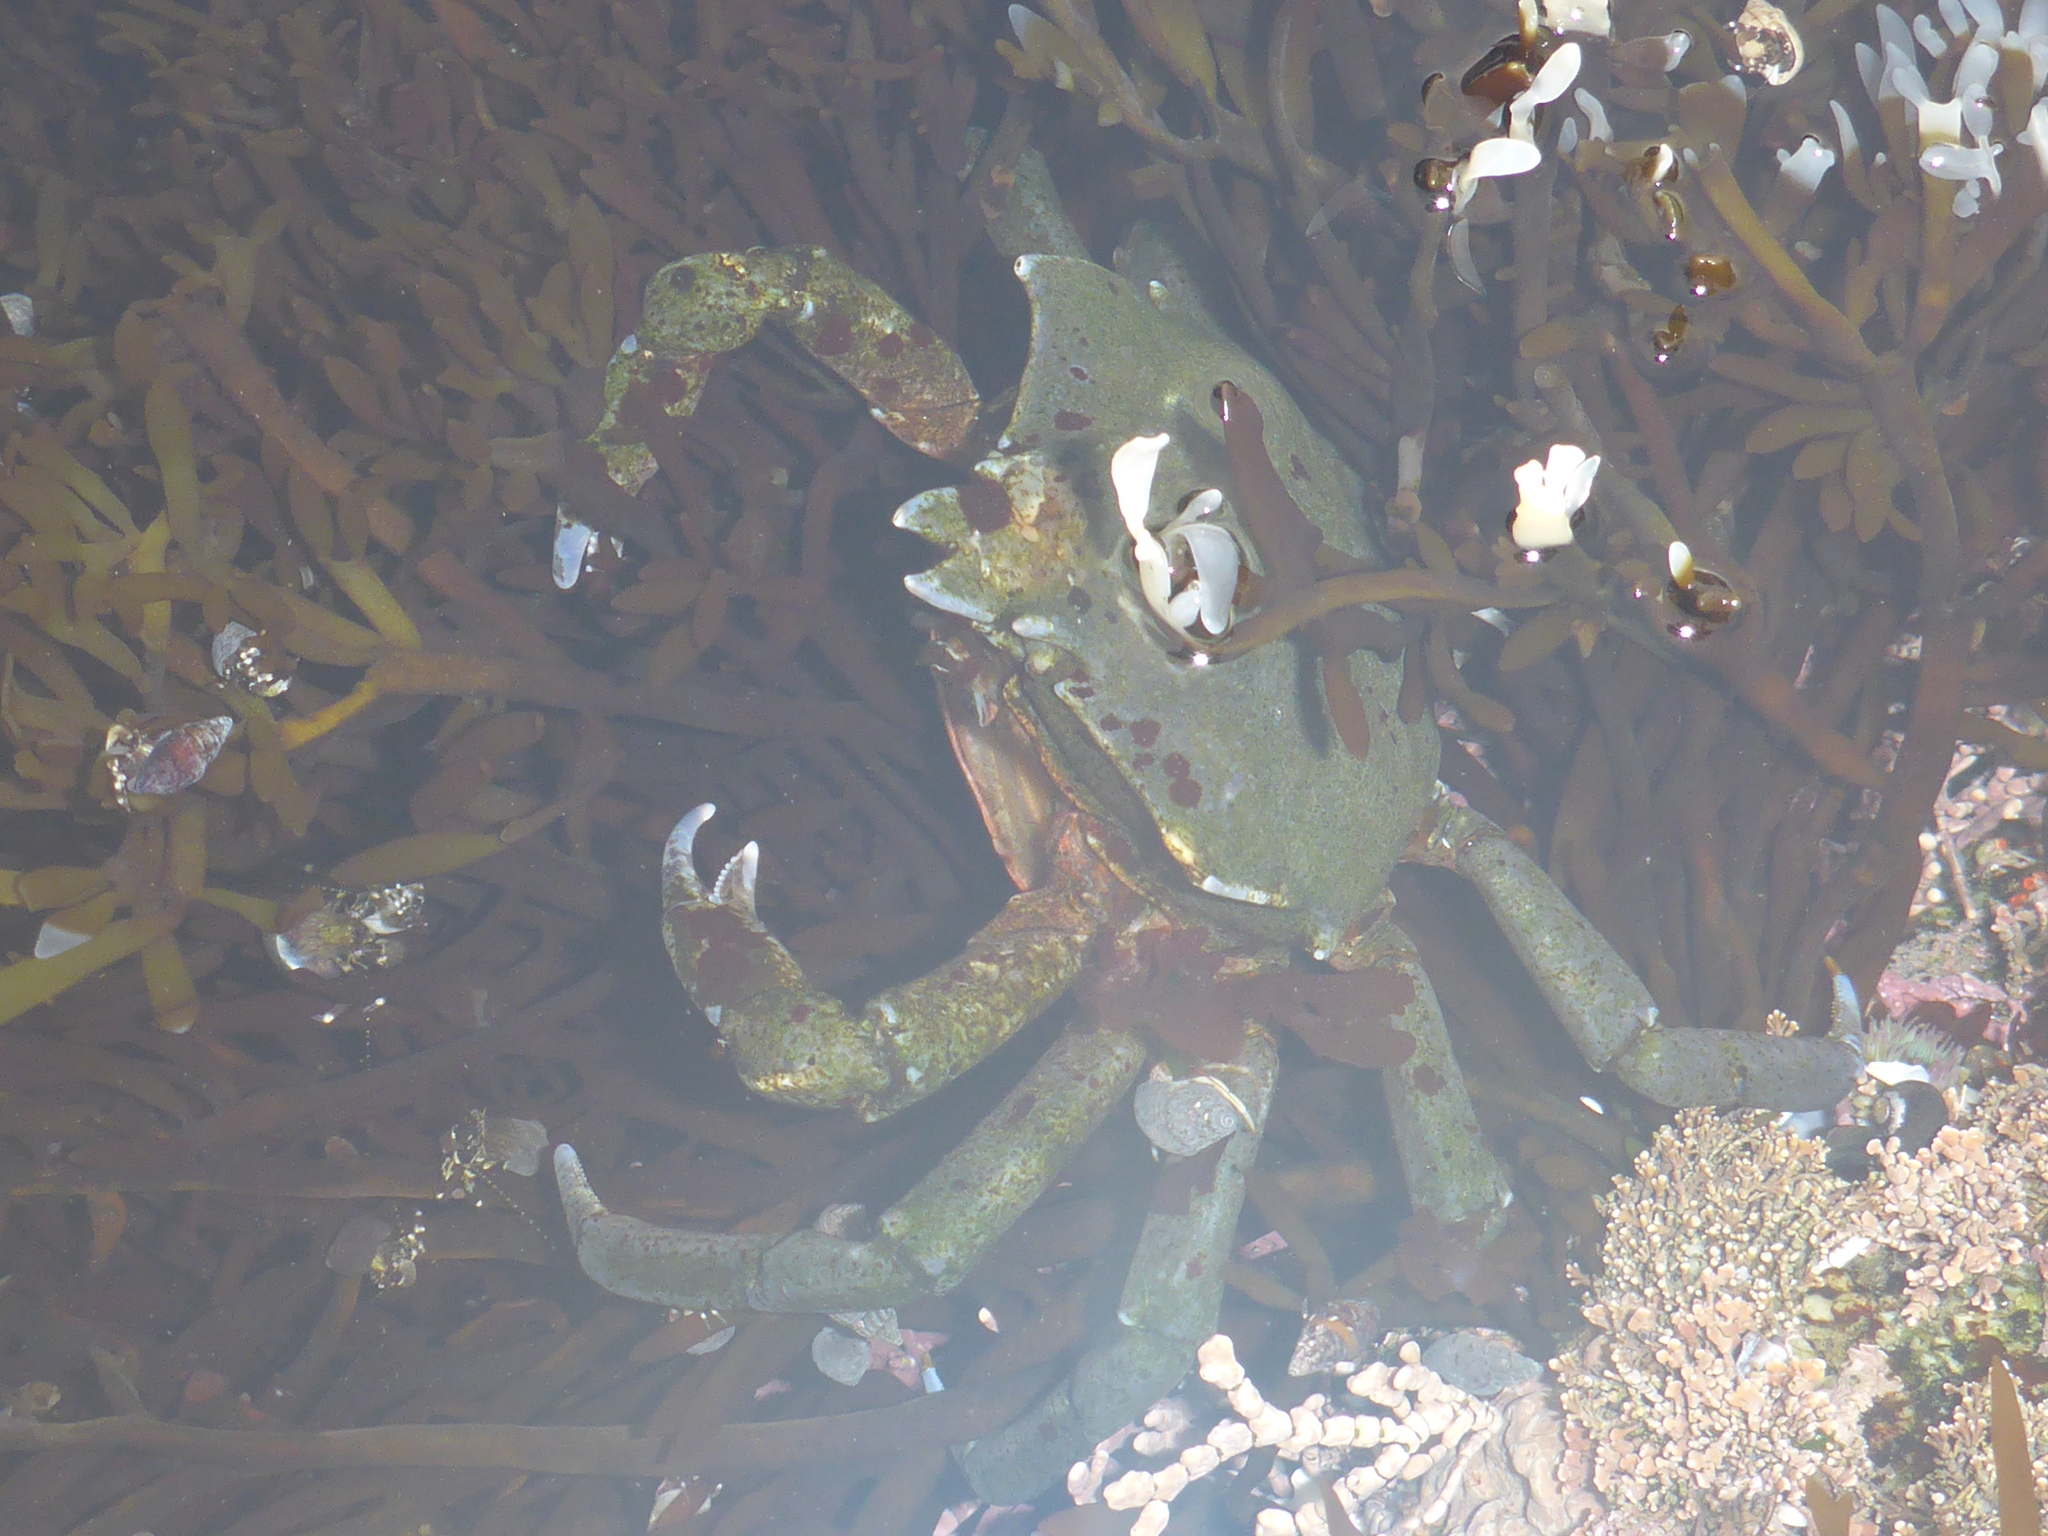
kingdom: Animalia
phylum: Arthropoda
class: Malacostraca
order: Decapoda
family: Epialtidae
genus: Pugettia
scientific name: Pugettia producta
